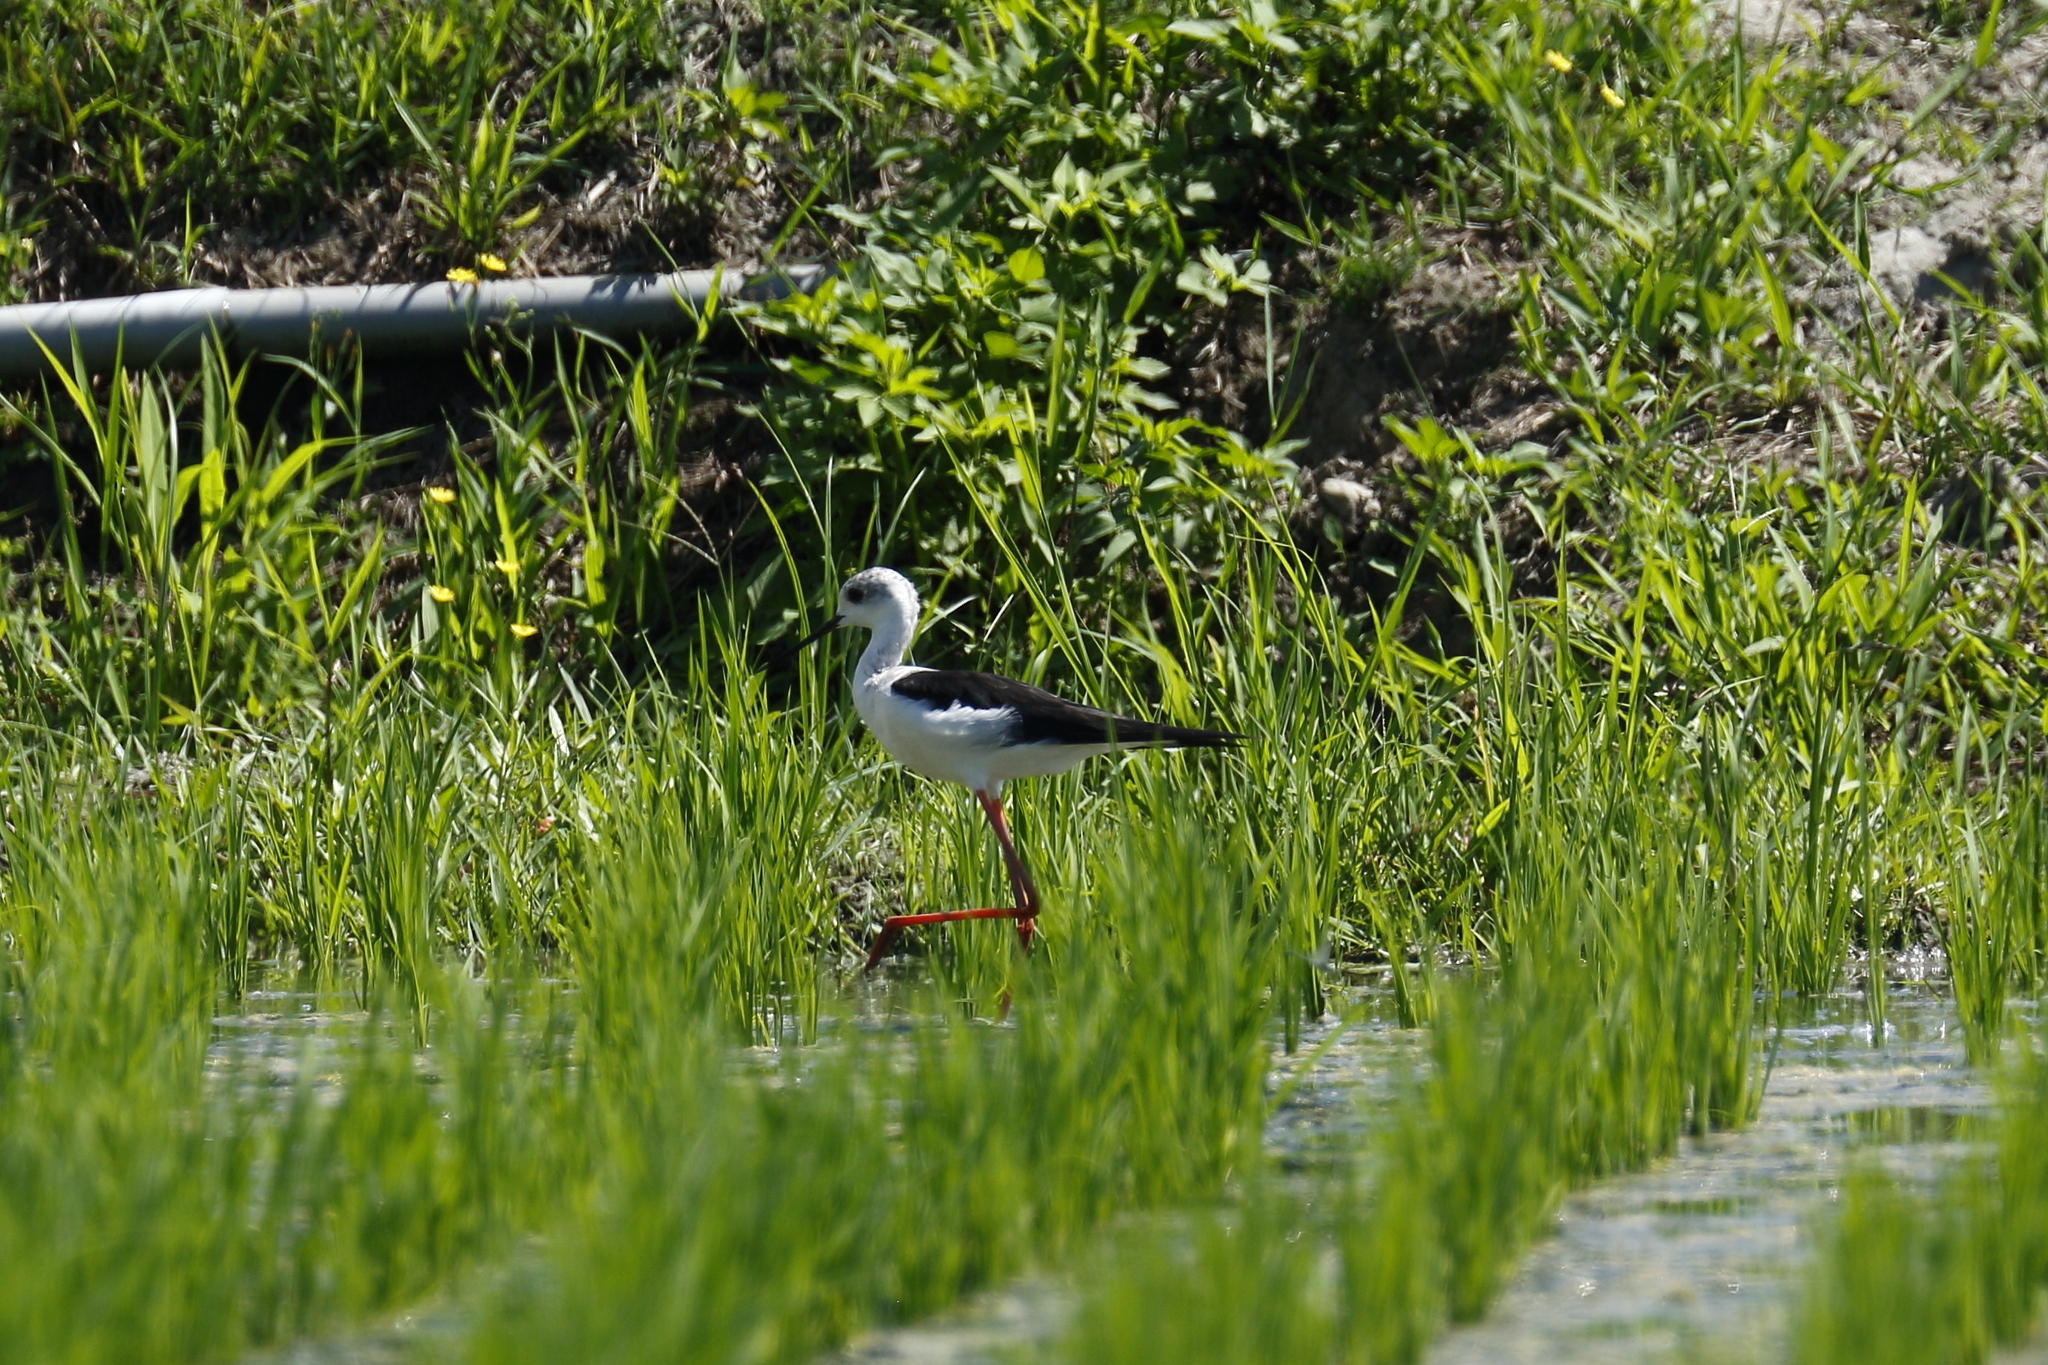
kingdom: Animalia
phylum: Chordata
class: Aves
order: Charadriiformes
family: Recurvirostridae
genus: Himantopus
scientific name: Himantopus himantopus
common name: Black-winged stilt
